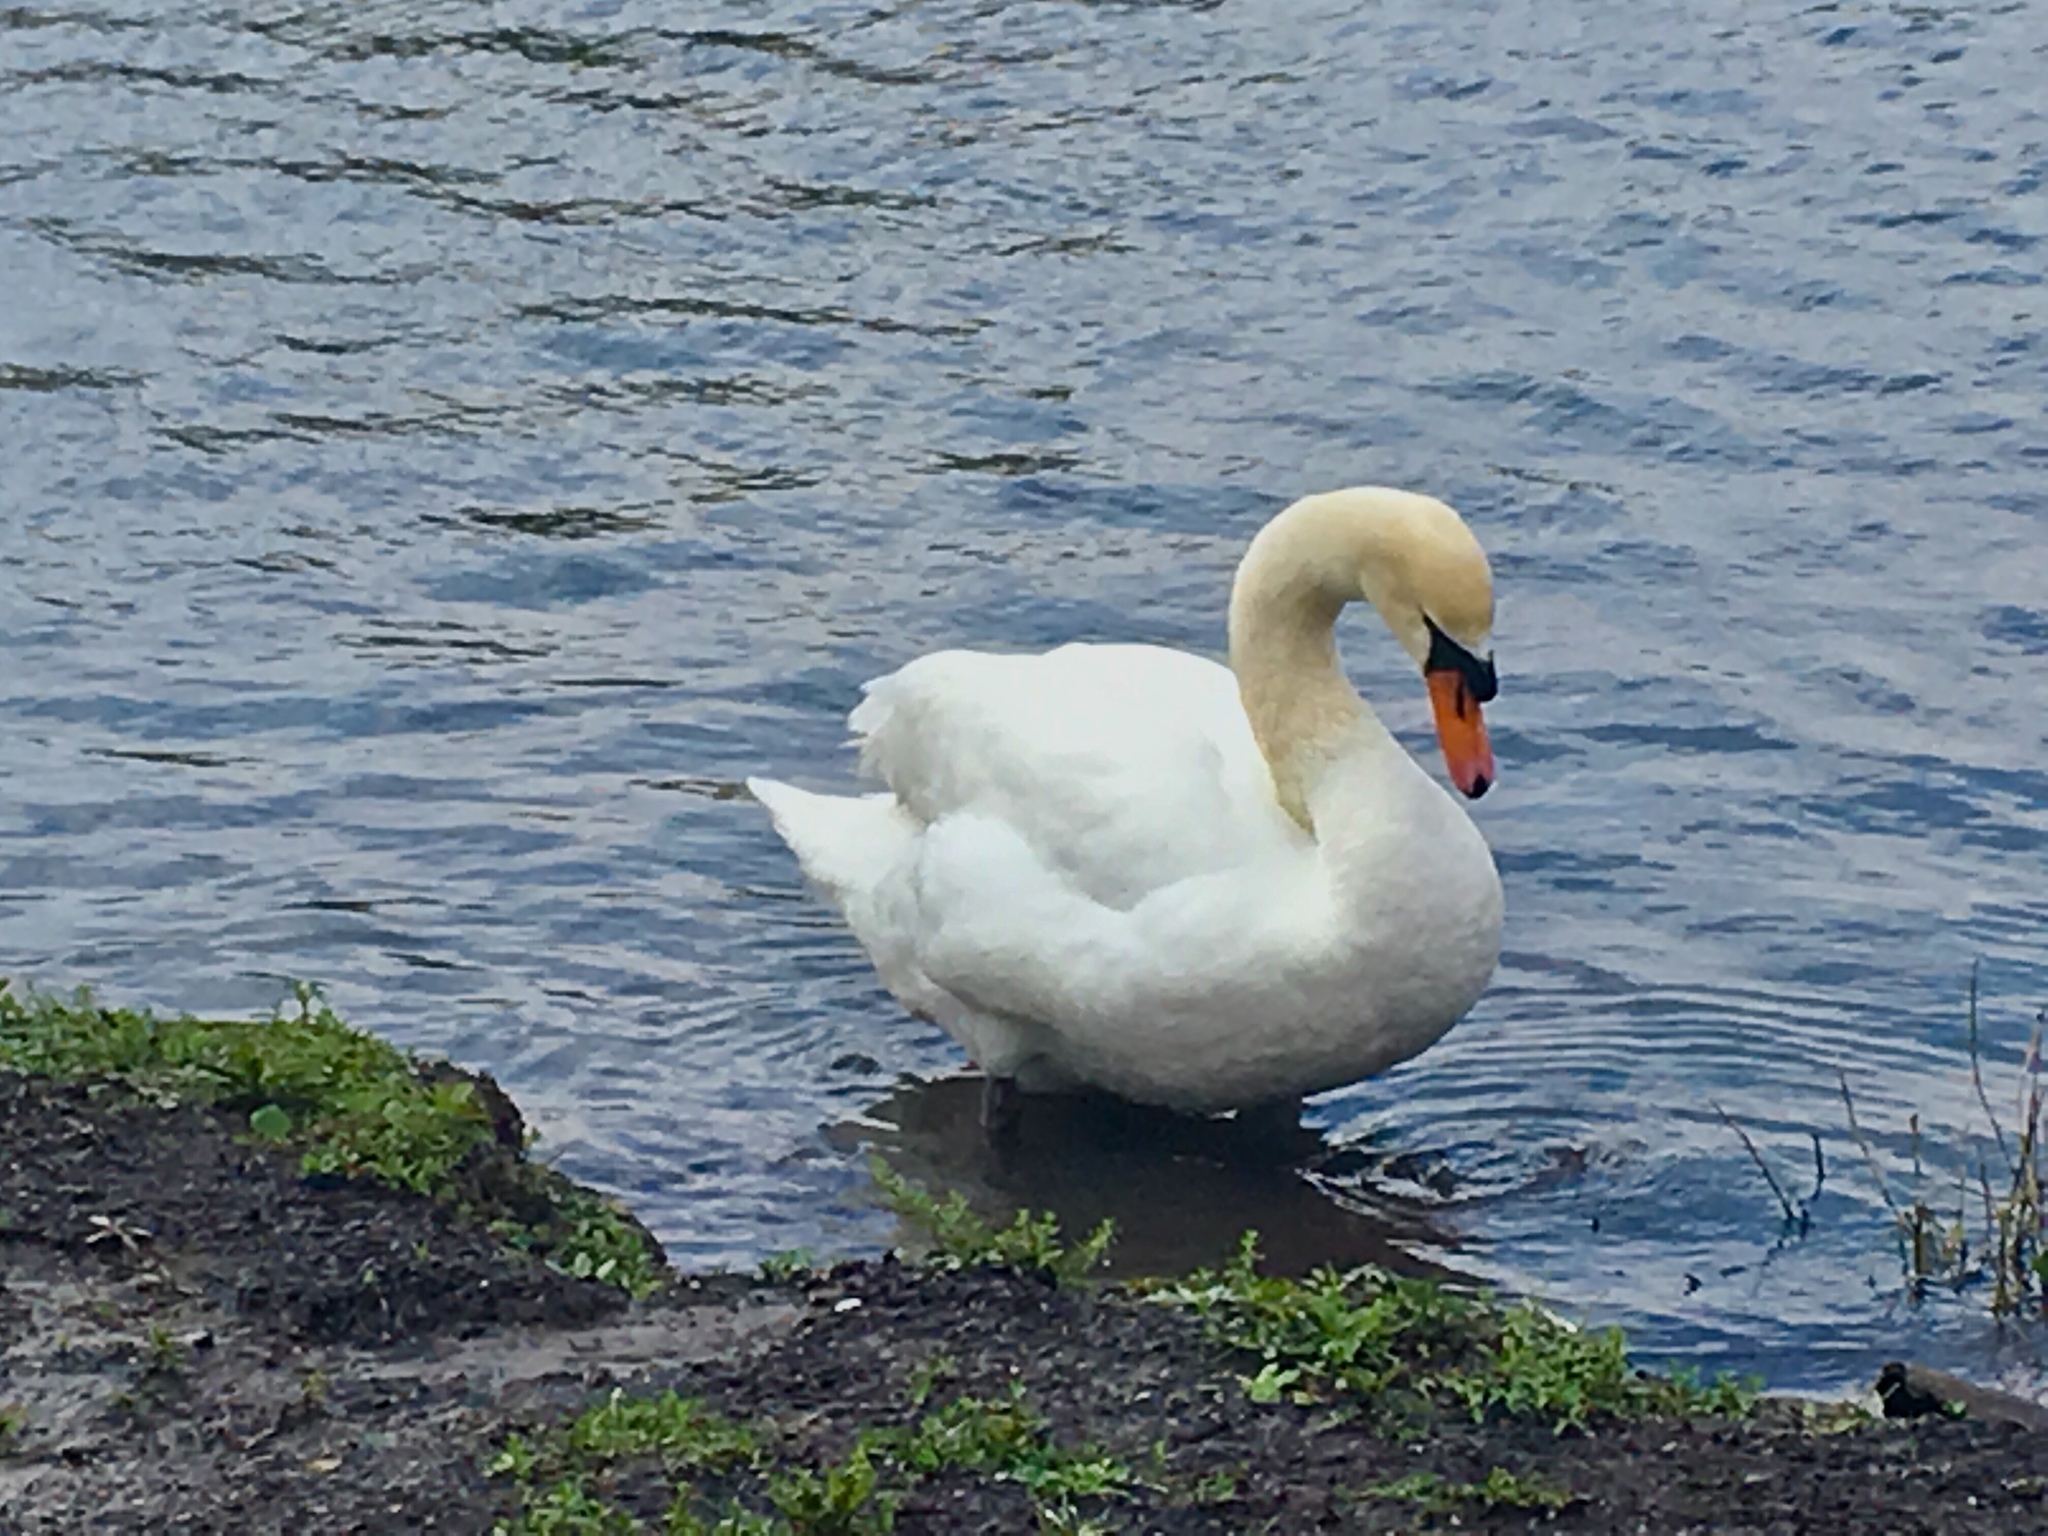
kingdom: Animalia
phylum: Chordata
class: Aves
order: Anseriformes
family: Anatidae
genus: Cygnus
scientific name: Cygnus olor
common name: Mute swan
